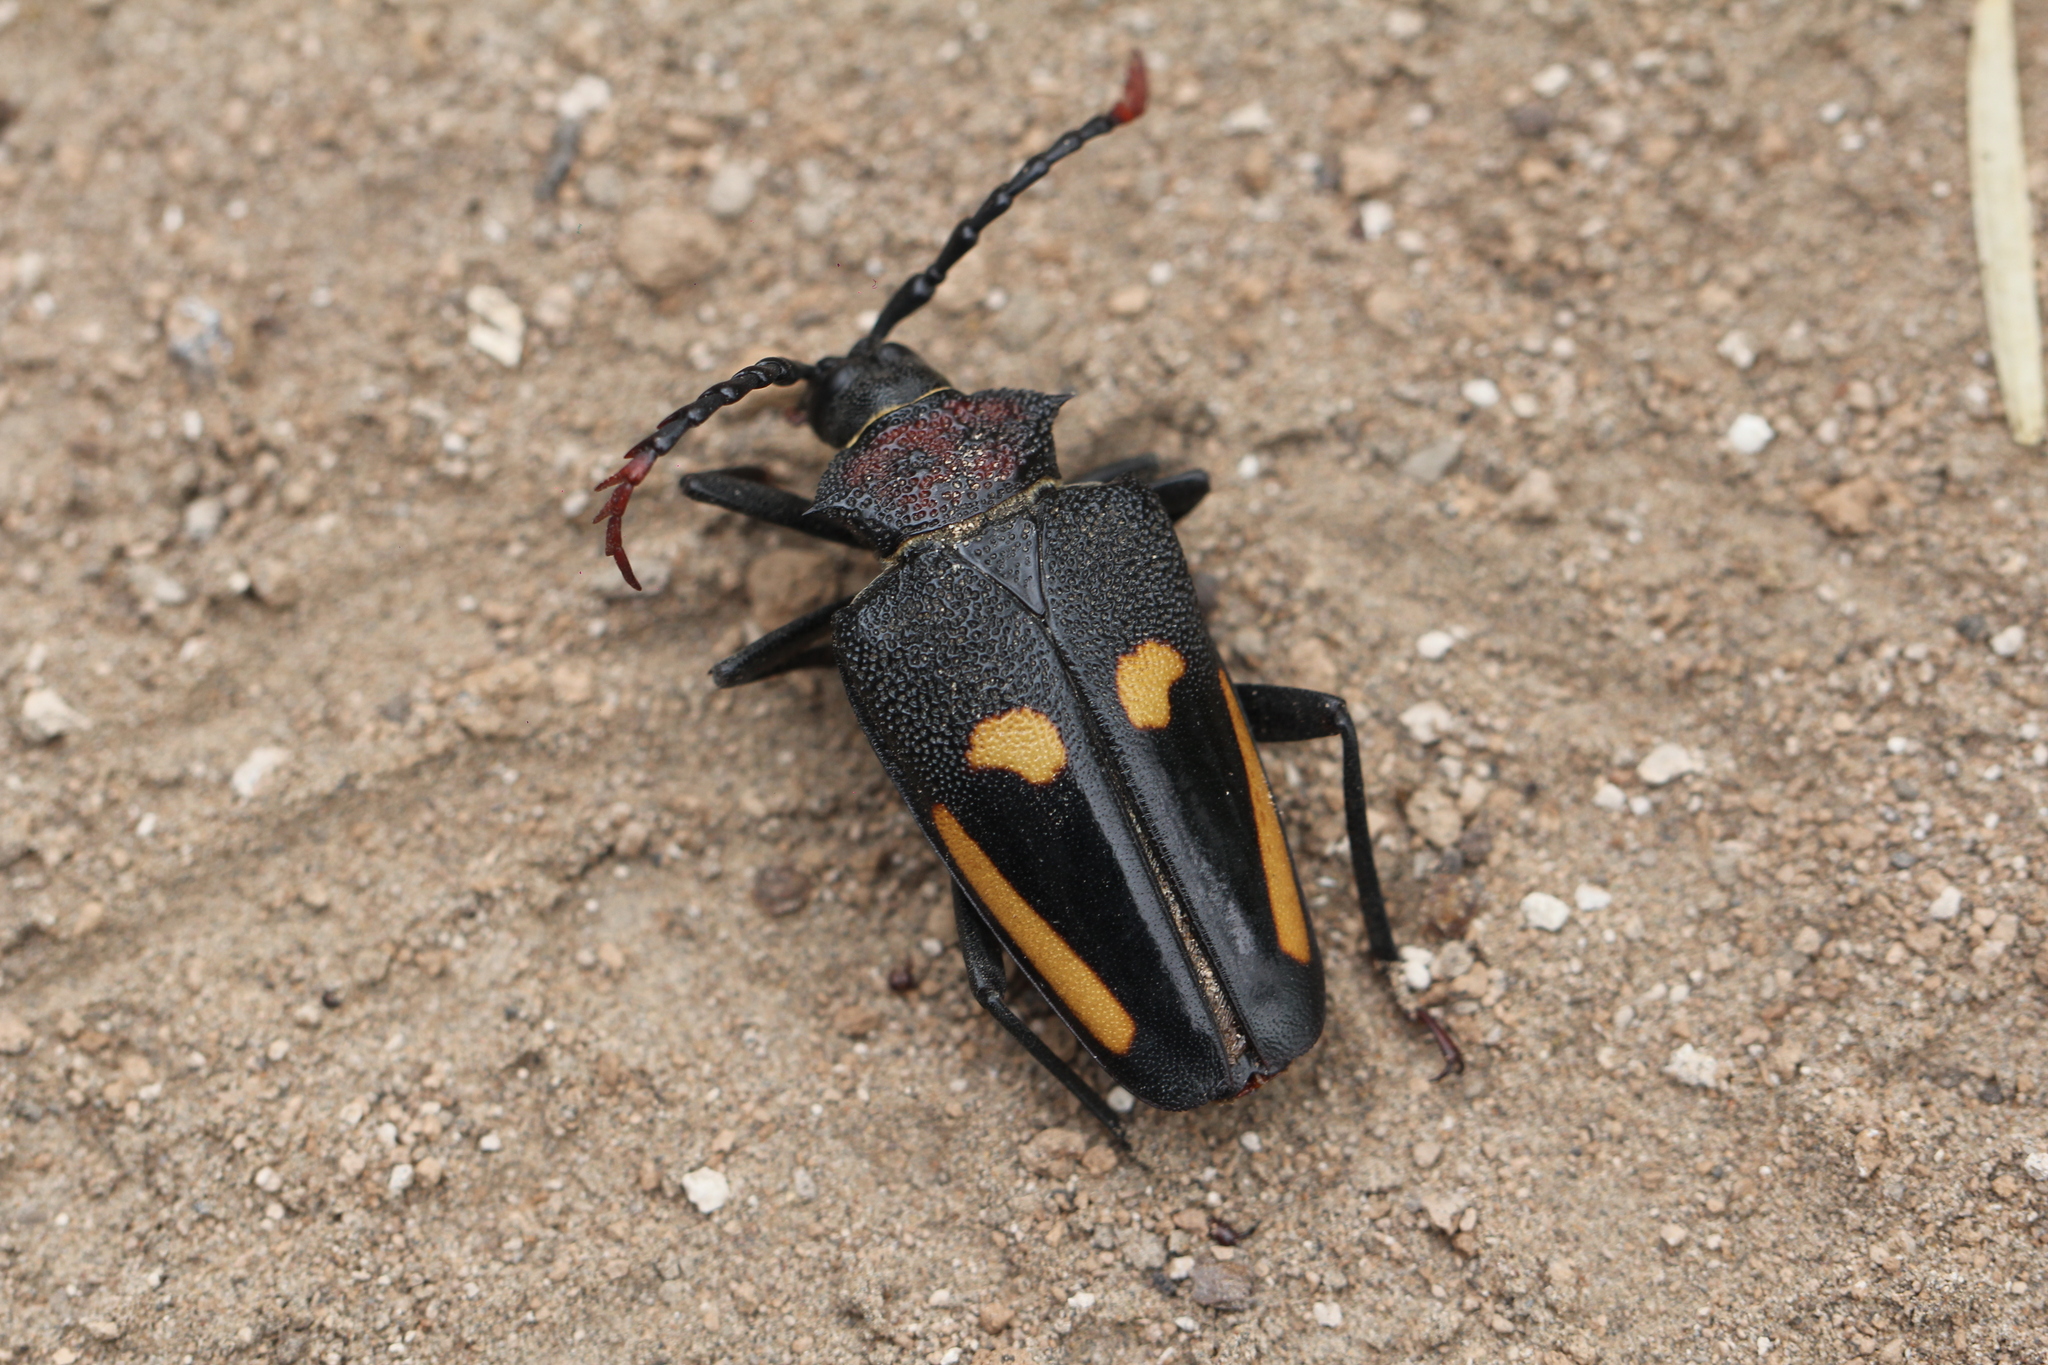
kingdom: Animalia
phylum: Arthropoda
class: Insecta
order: Coleoptera
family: Cerambycidae
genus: Calocomus
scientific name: Calocomus desmarestii
